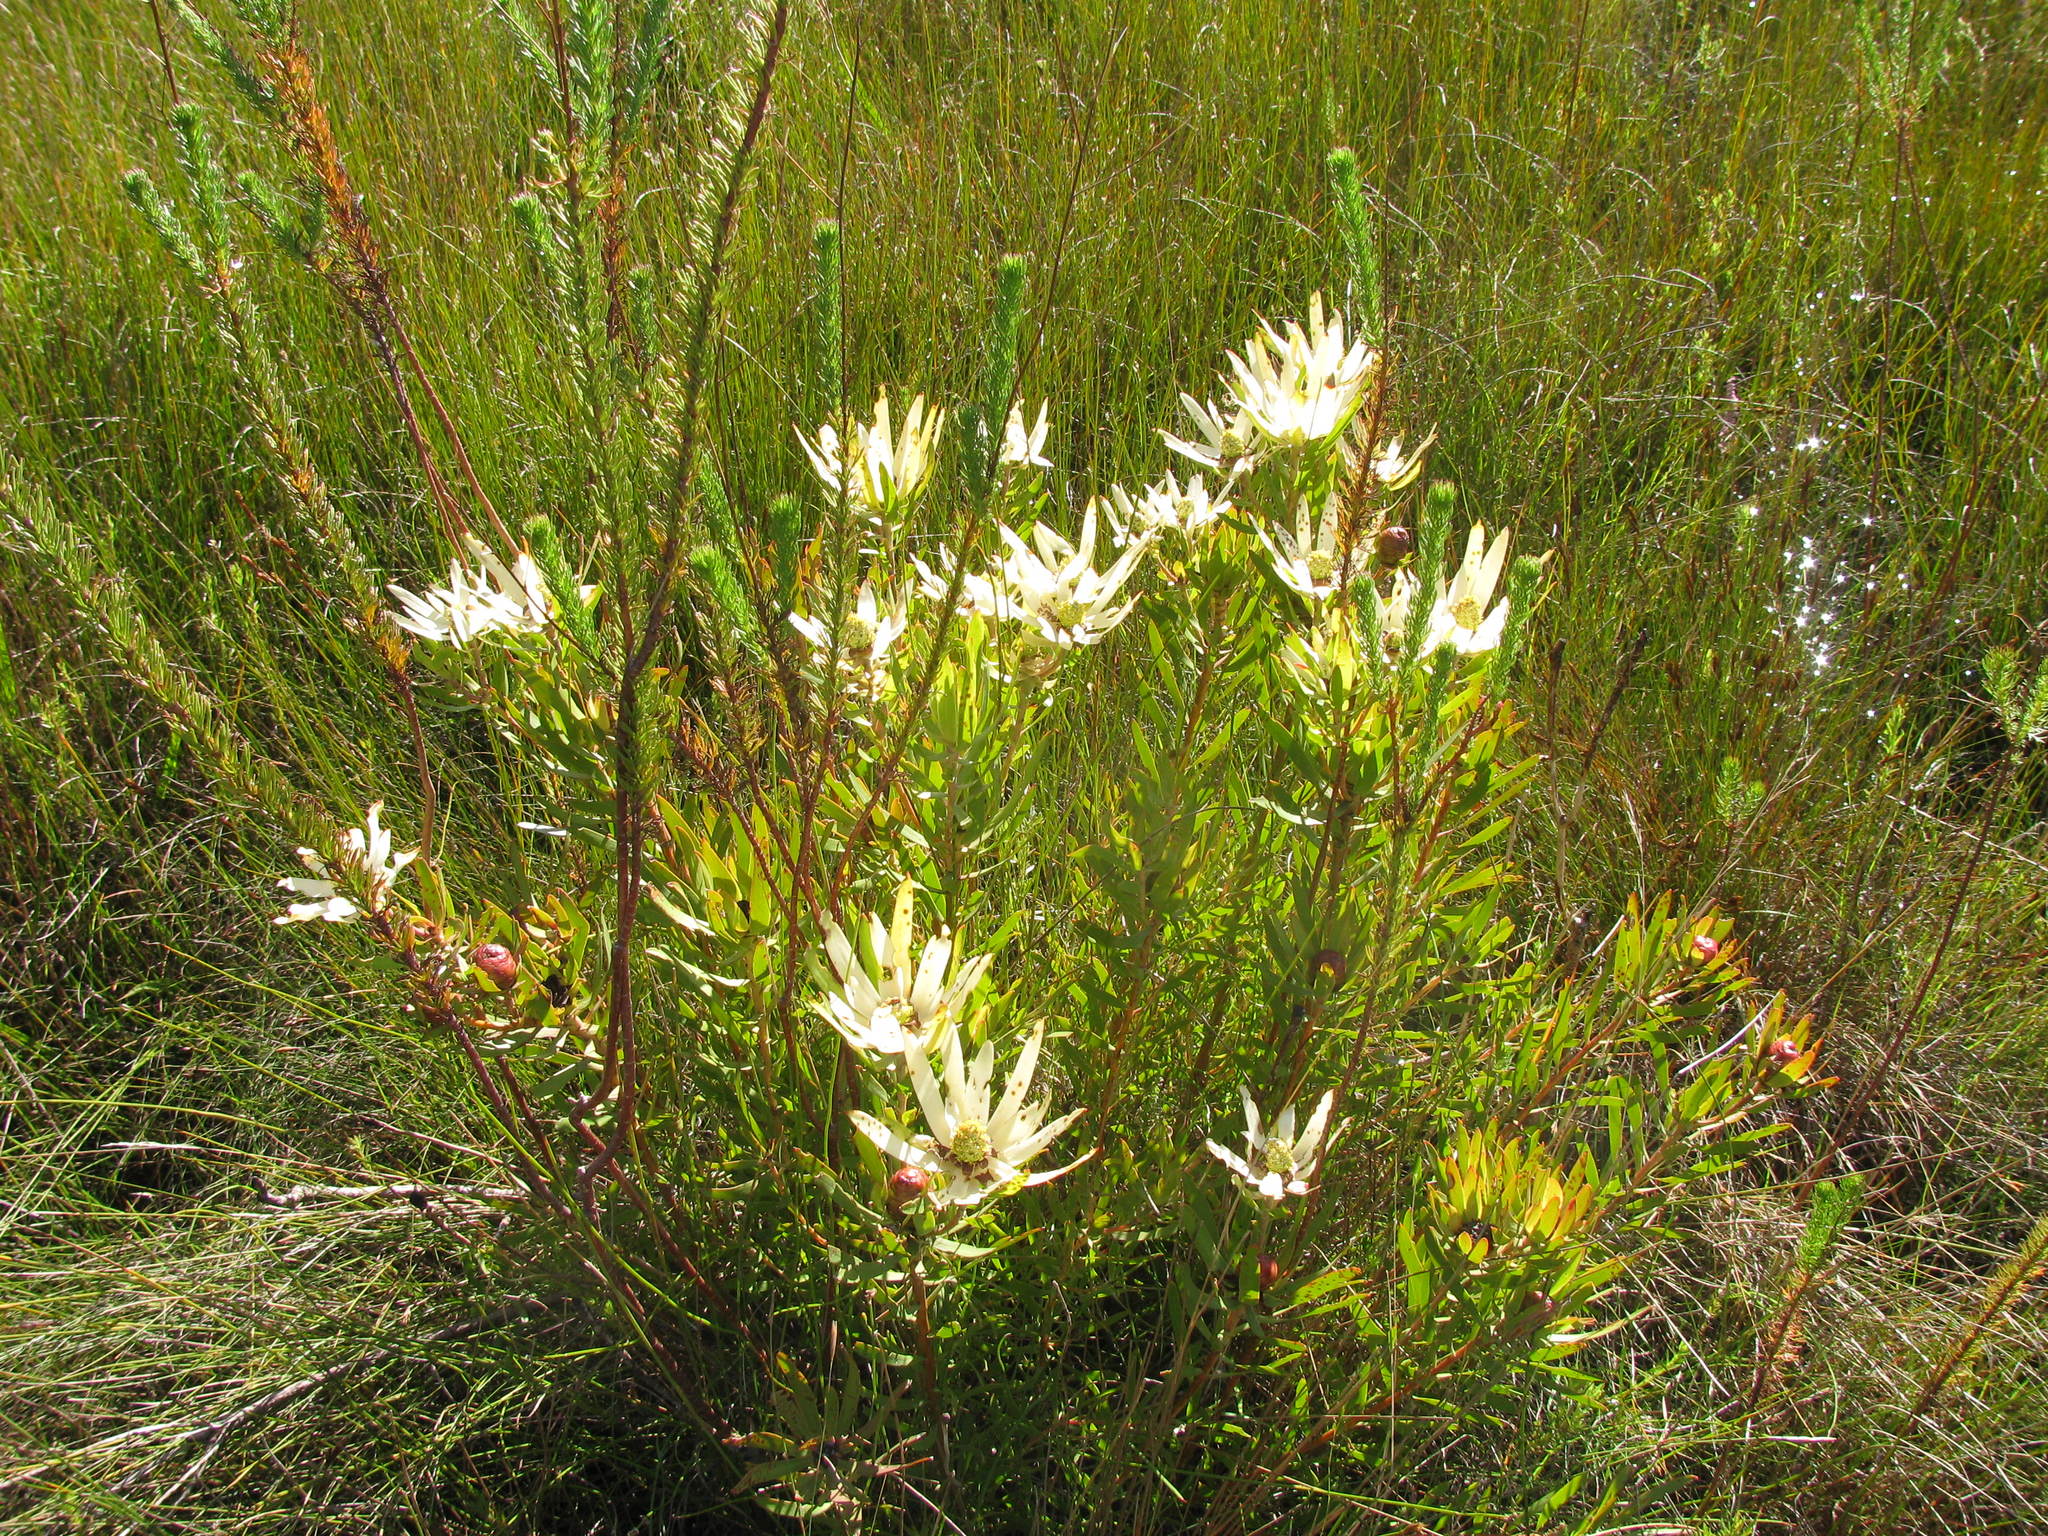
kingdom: Plantae
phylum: Tracheophyta
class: Magnoliopsida
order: Proteales
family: Proteaceae
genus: Leucadendron
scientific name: Leucadendron spissifolium
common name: Spear-leaf conebush
